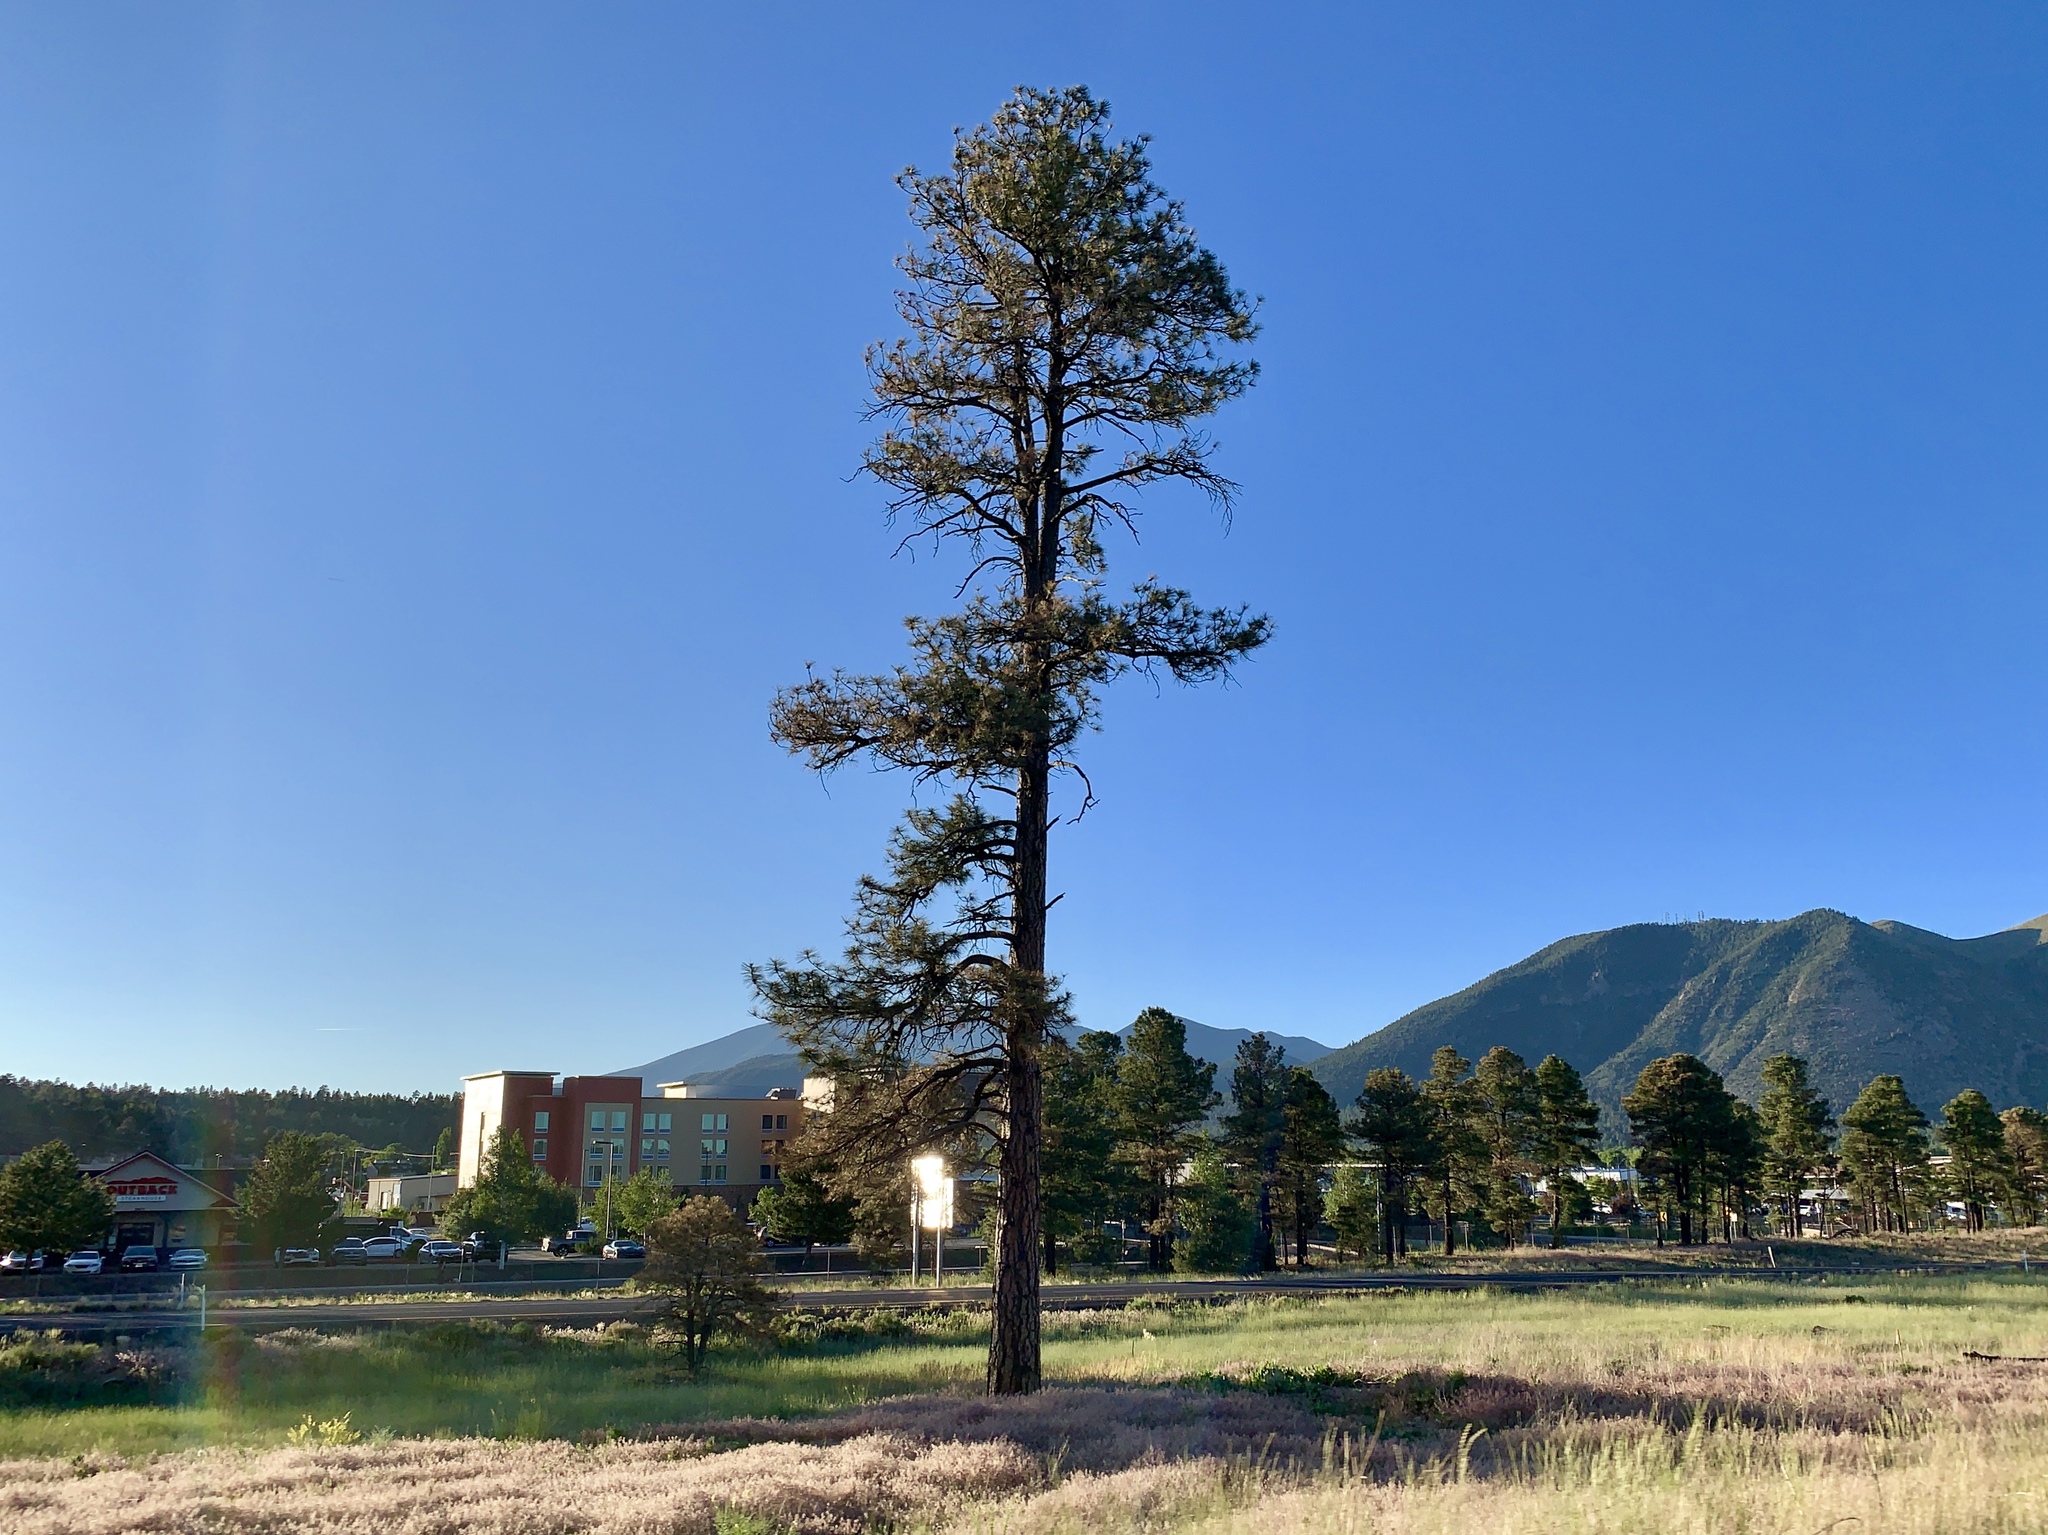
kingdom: Plantae
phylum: Tracheophyta
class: Pinopsida
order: Pinales
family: Pinaceae
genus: Pinus
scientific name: Pinus ponderosa
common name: Western yellow-pine
